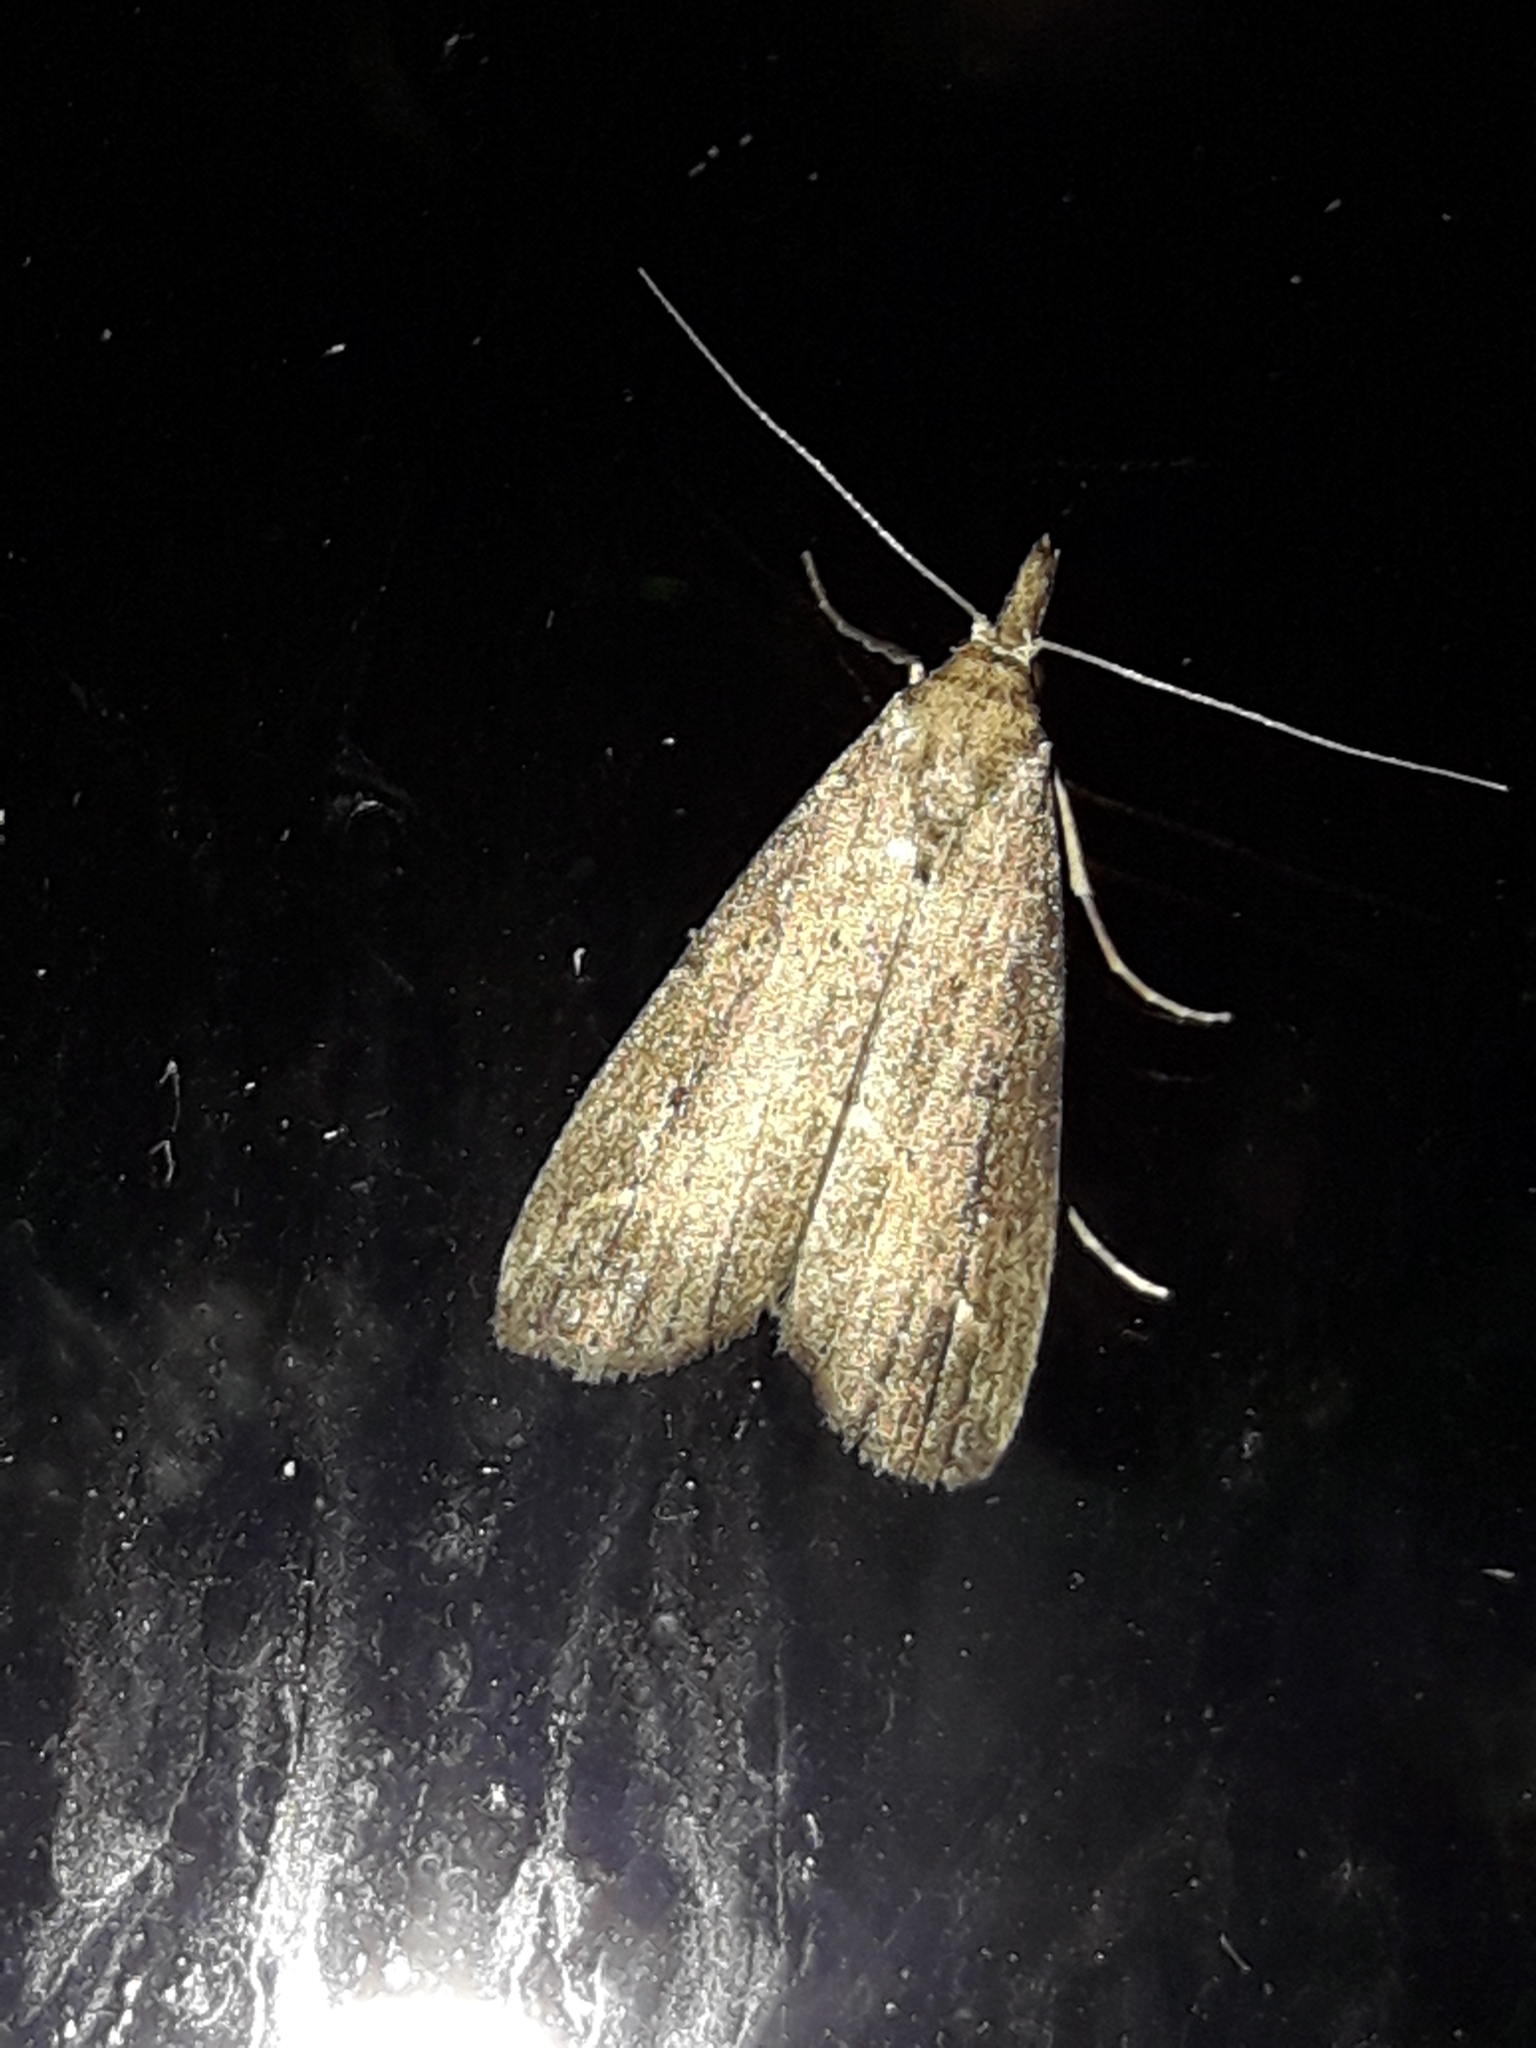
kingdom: Animalia
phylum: Arthropoda
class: Insecta
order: Lepidoptera
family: Erebidae
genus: Schrankia
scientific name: Schrankia costaestrigalis
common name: Pinion-streaked snout
